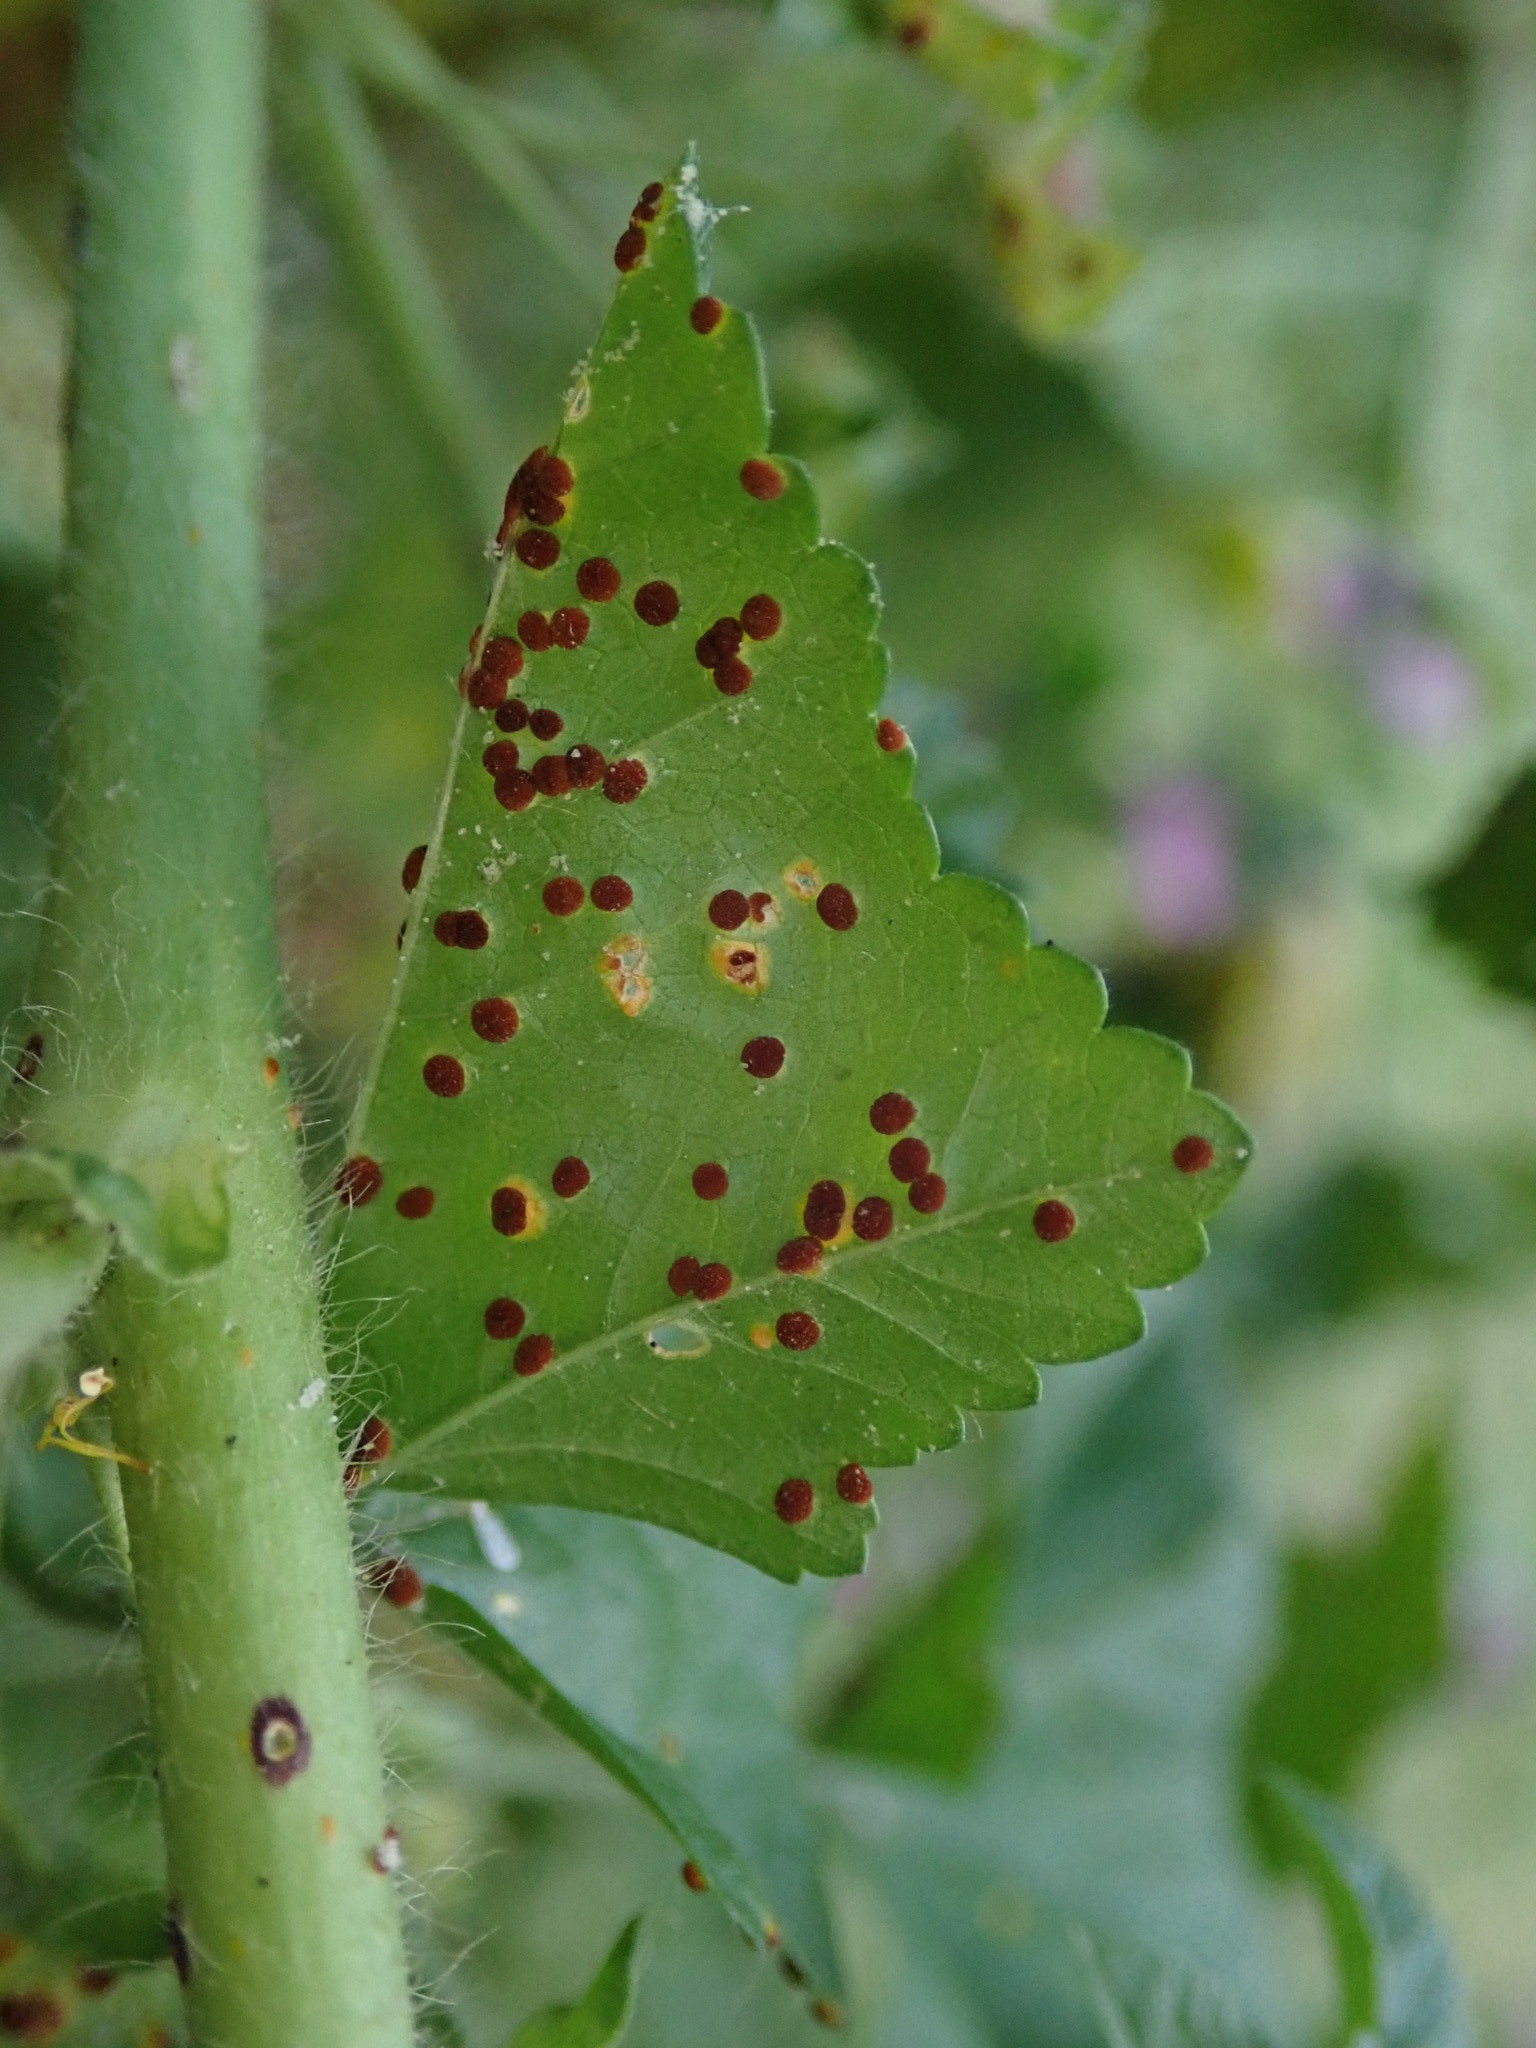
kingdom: Fungi
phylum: Basidiomycota
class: Pucciniomycetes
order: Pucciniales
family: Pucciniaceae
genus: Puccinia
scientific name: Puccinia malvacearum
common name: Hollyhock rust
